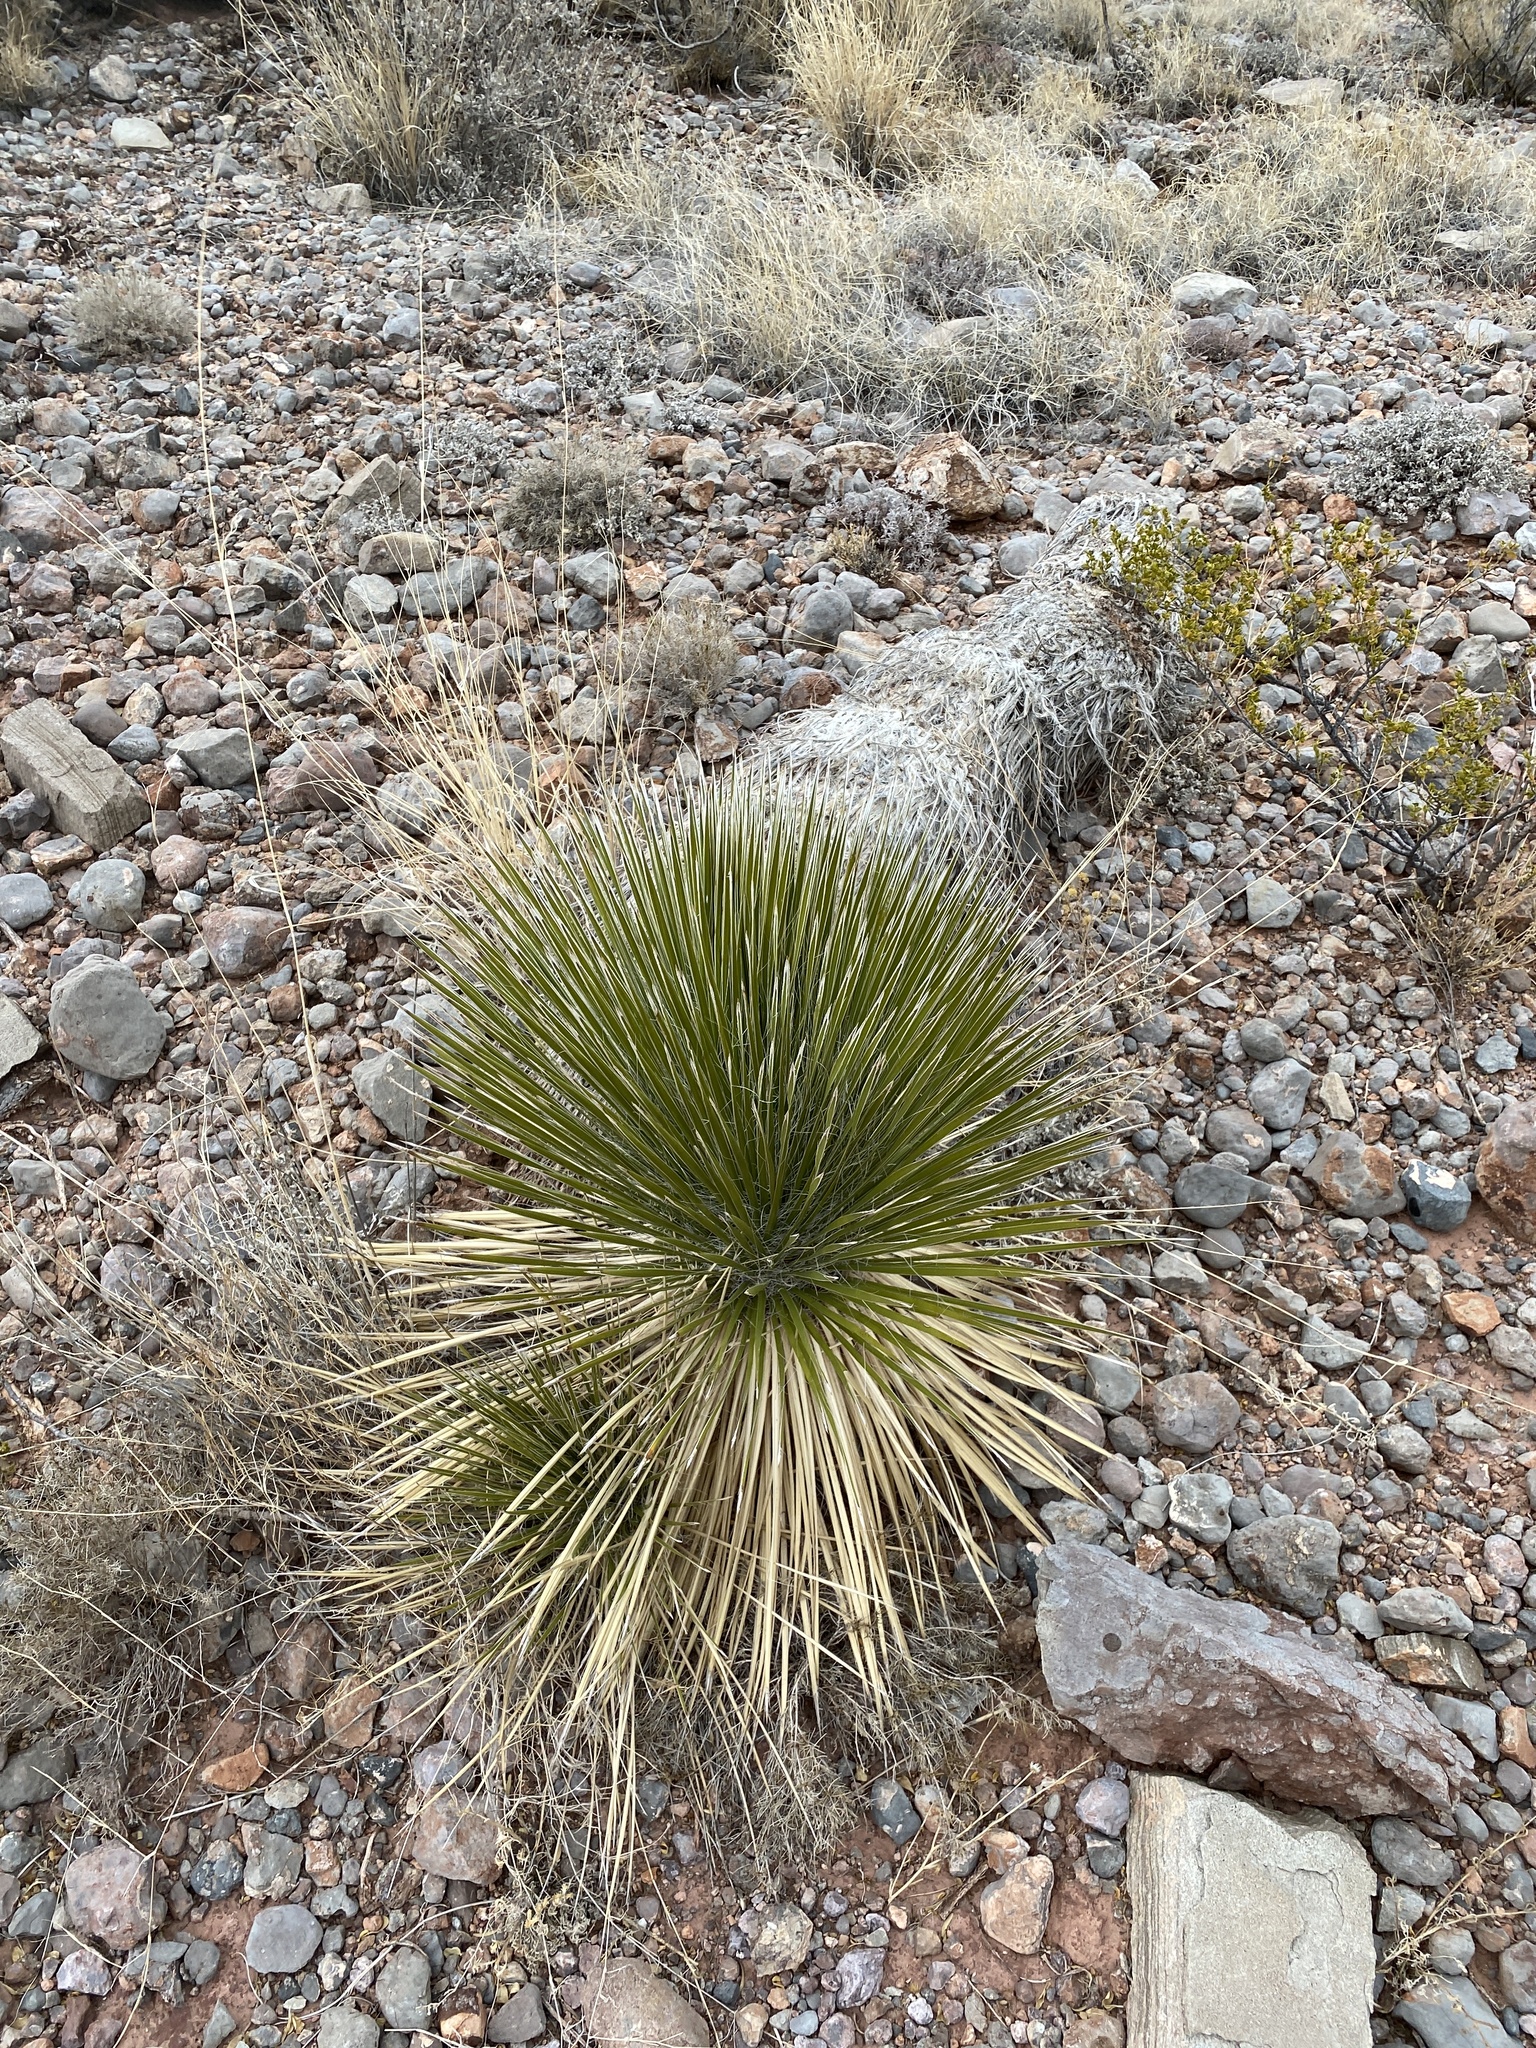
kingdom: Plantae
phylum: Tracheophyta
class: Liliopsida
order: Asparagales
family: Asparagaceae
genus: Yucca
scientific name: Yucca elata
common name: Palmella
